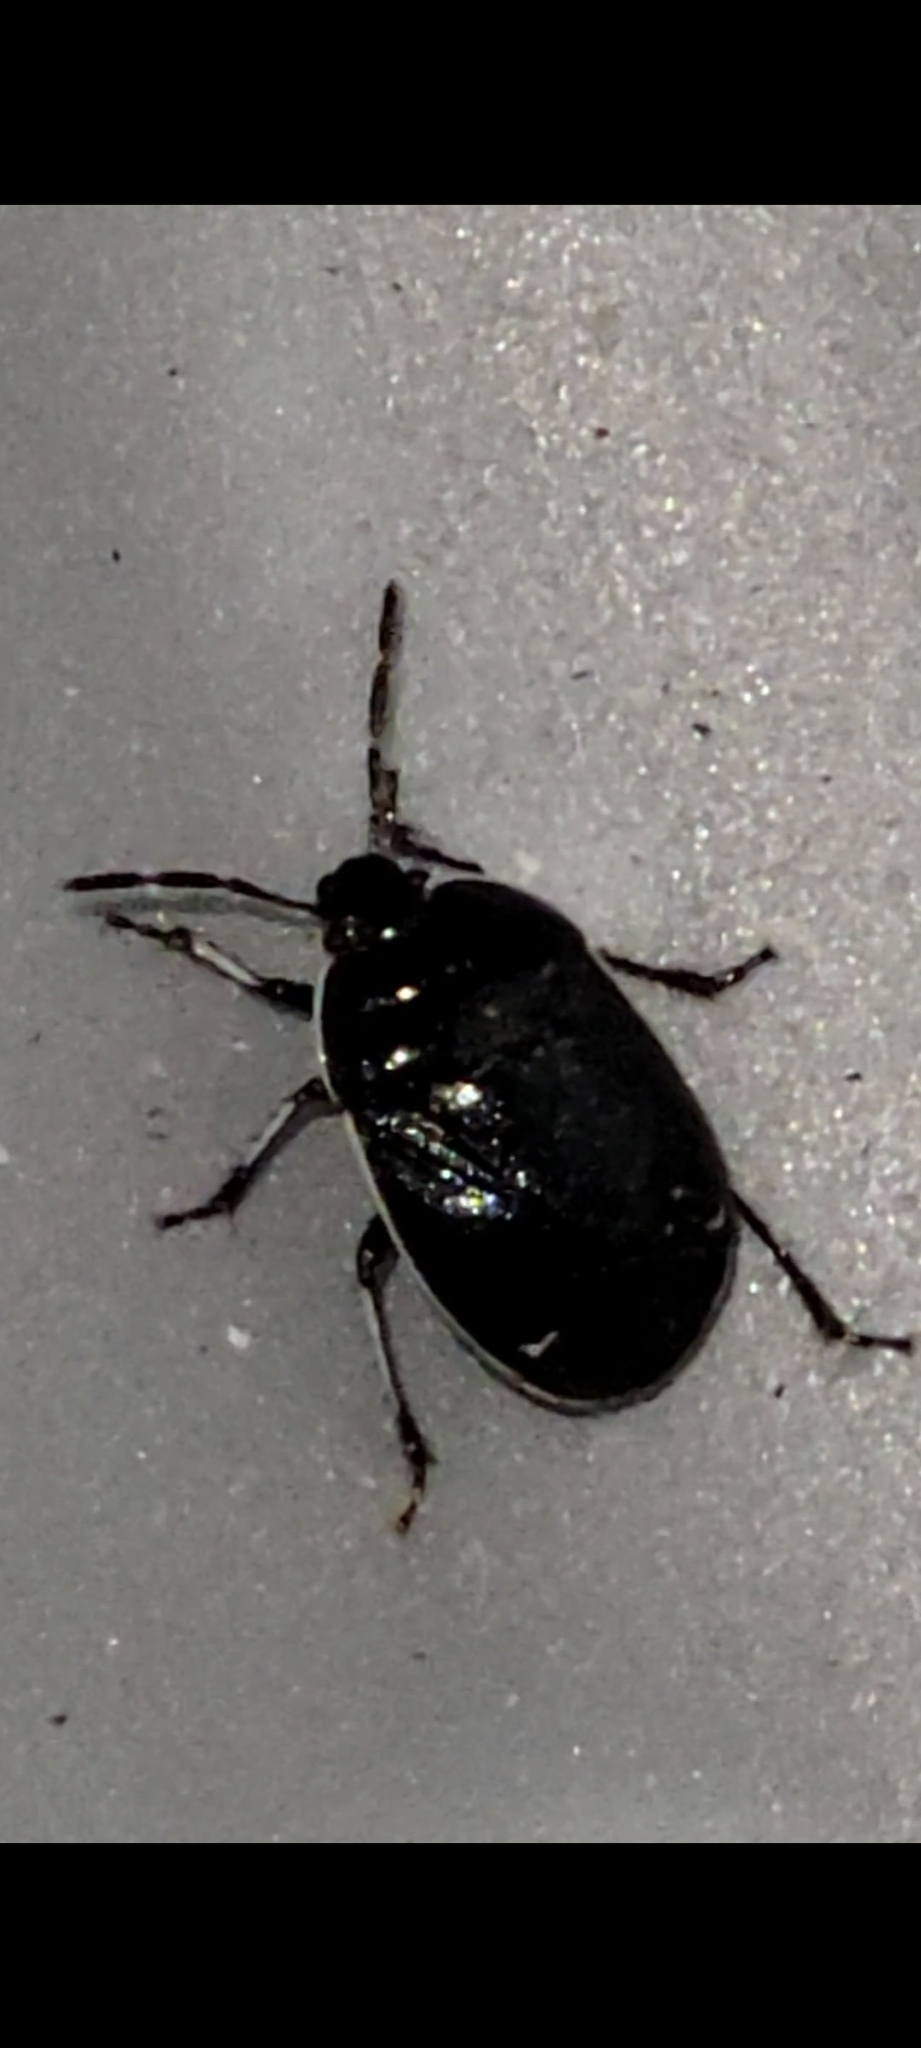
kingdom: Animalia
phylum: Arthropoda
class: Insecta
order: Hemiptera
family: Cydnidae
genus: Sehirus
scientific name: Sehirus cinctus
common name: White-margined burrower bug
